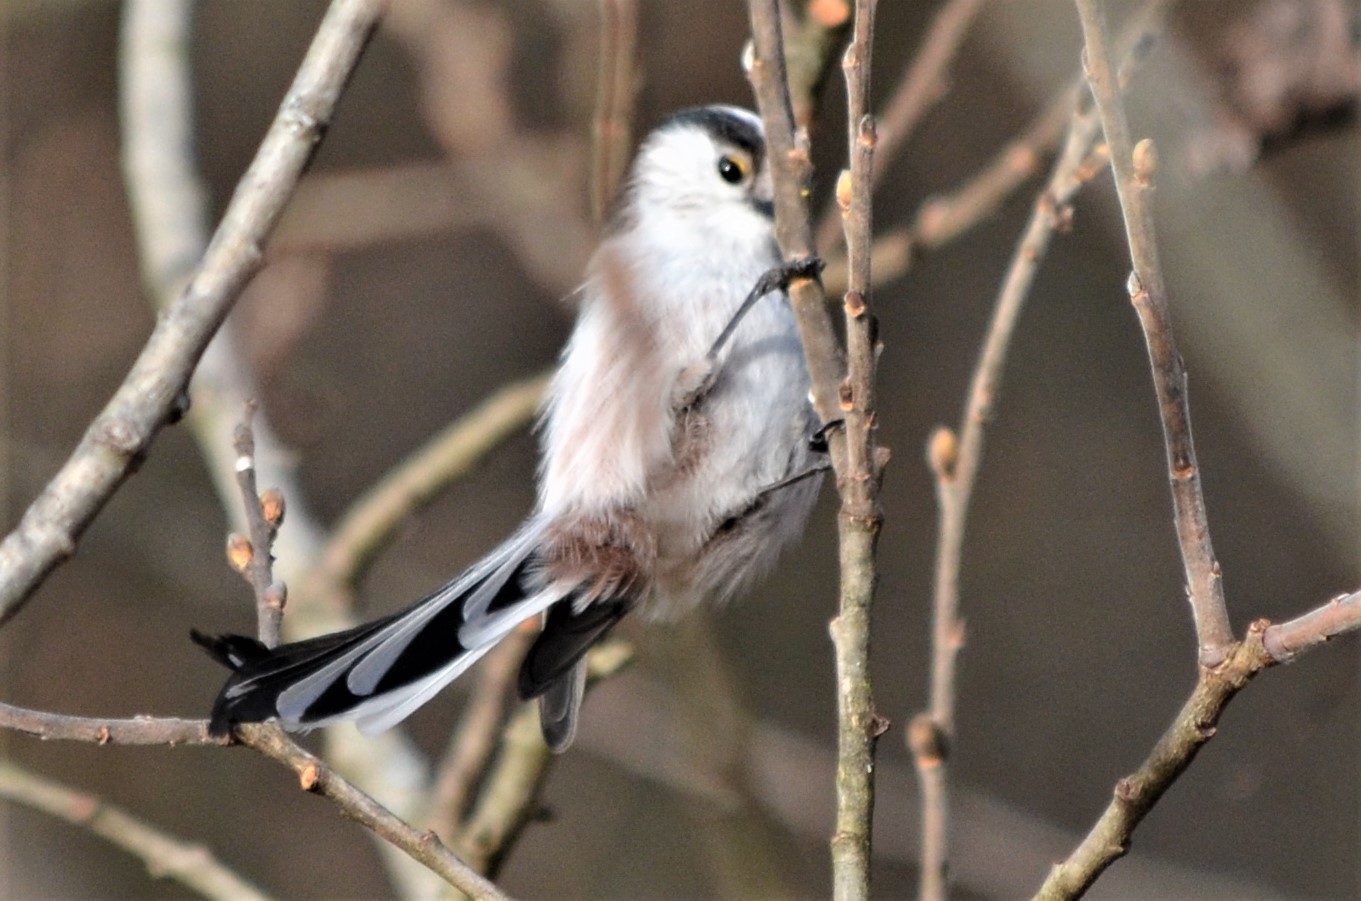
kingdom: Animalia
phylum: Chordata
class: Aves
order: Passeriformes
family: Aegithalidae
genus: Aegithalos
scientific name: Aegithalos caudatus
